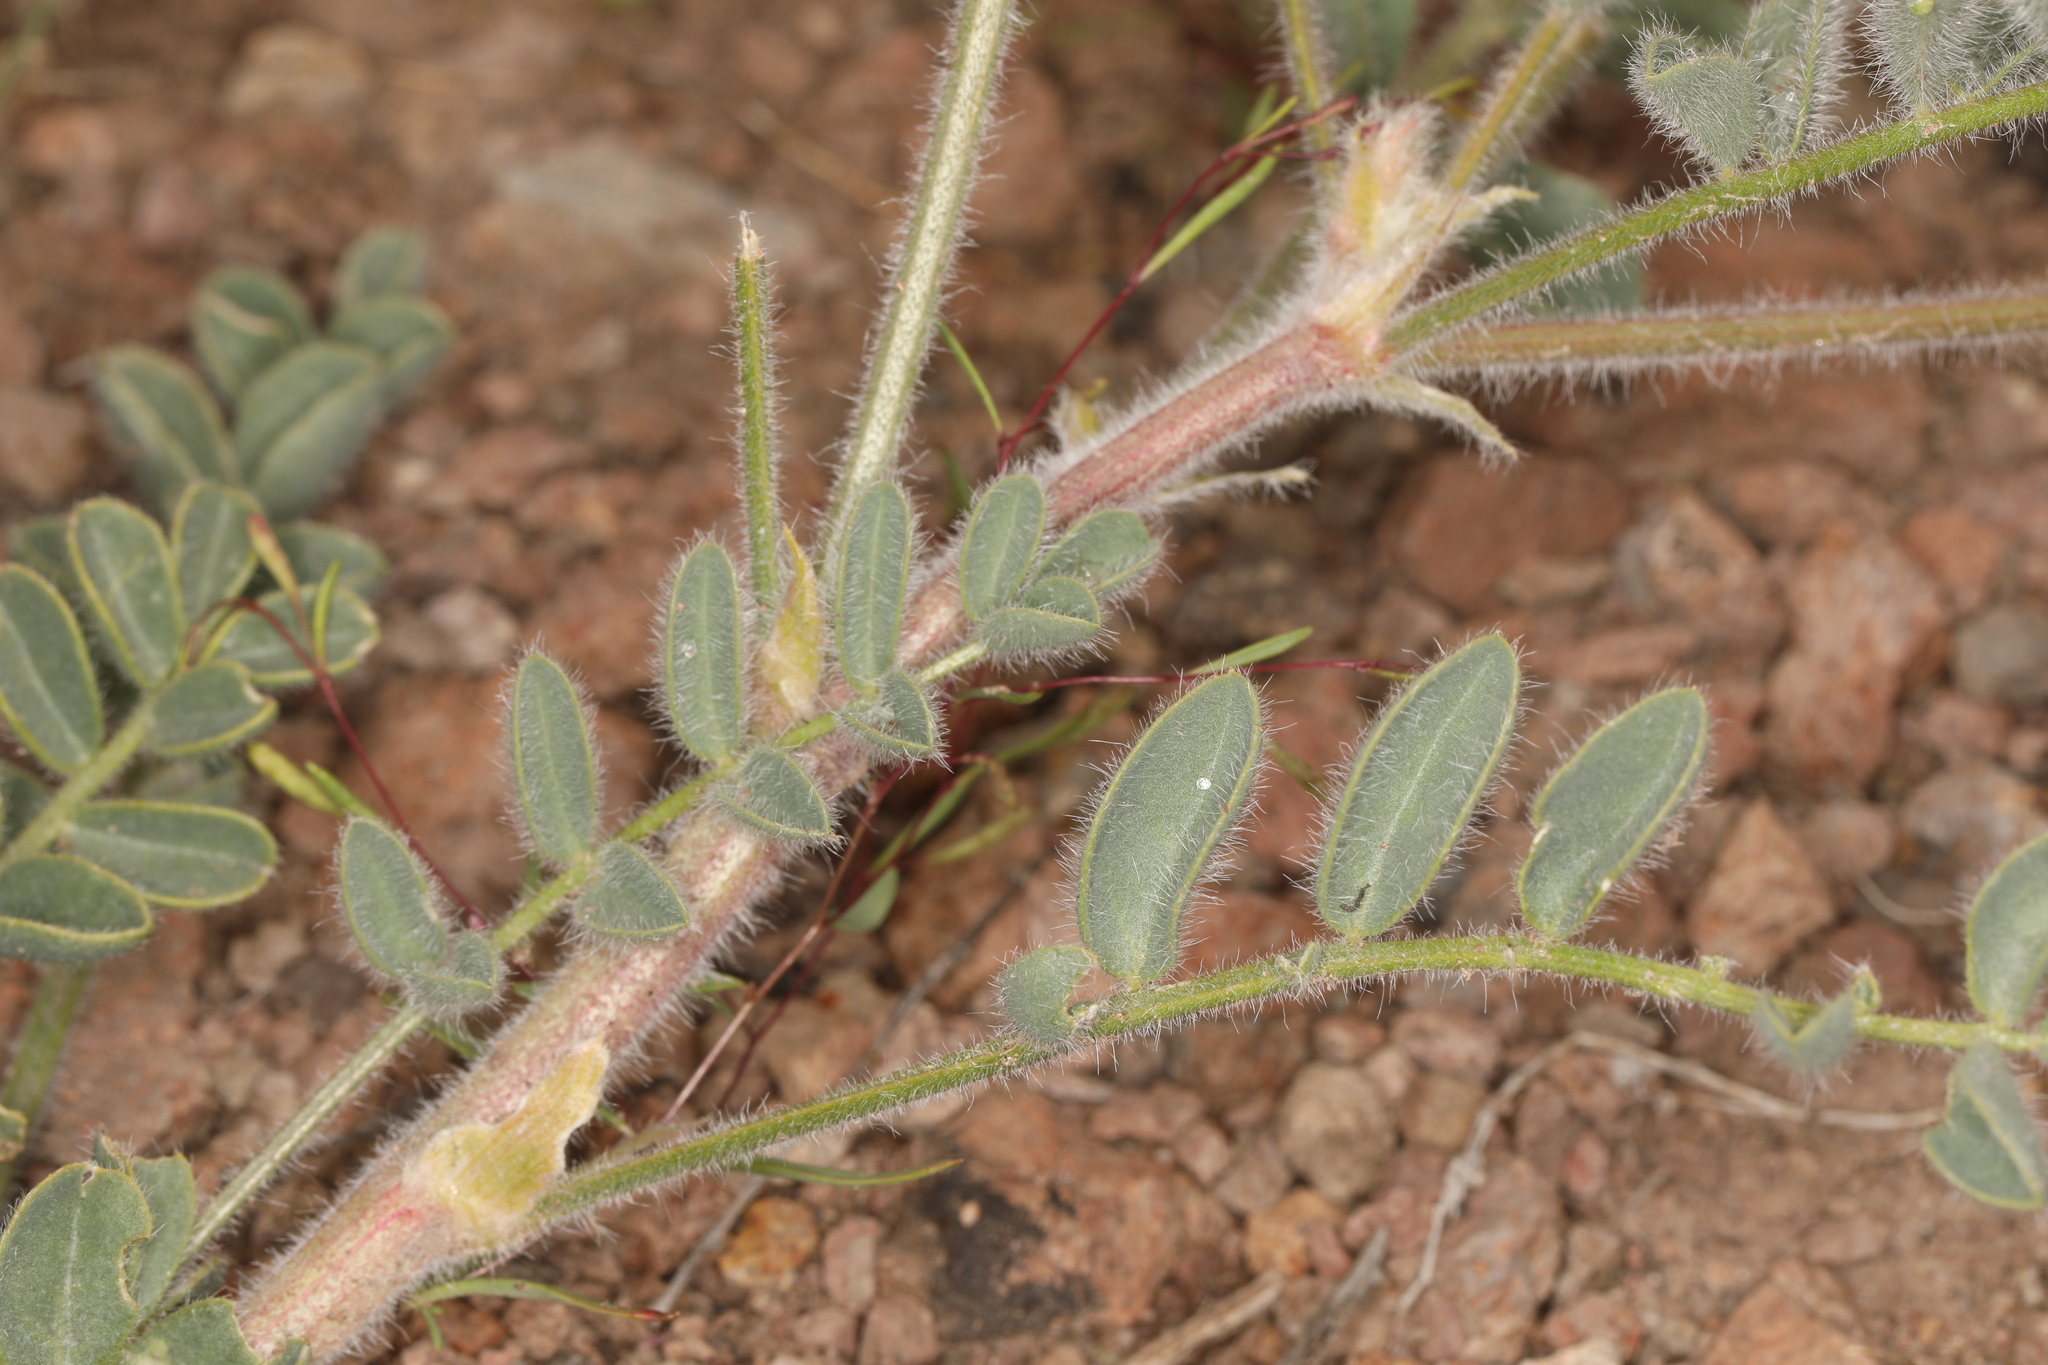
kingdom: Plantae
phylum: Tracheophyta
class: Magnoliopsida
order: Fabales
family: Fabaceae
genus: Astragalus
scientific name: Astragalus malacus
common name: Shaggy milk-vetch
